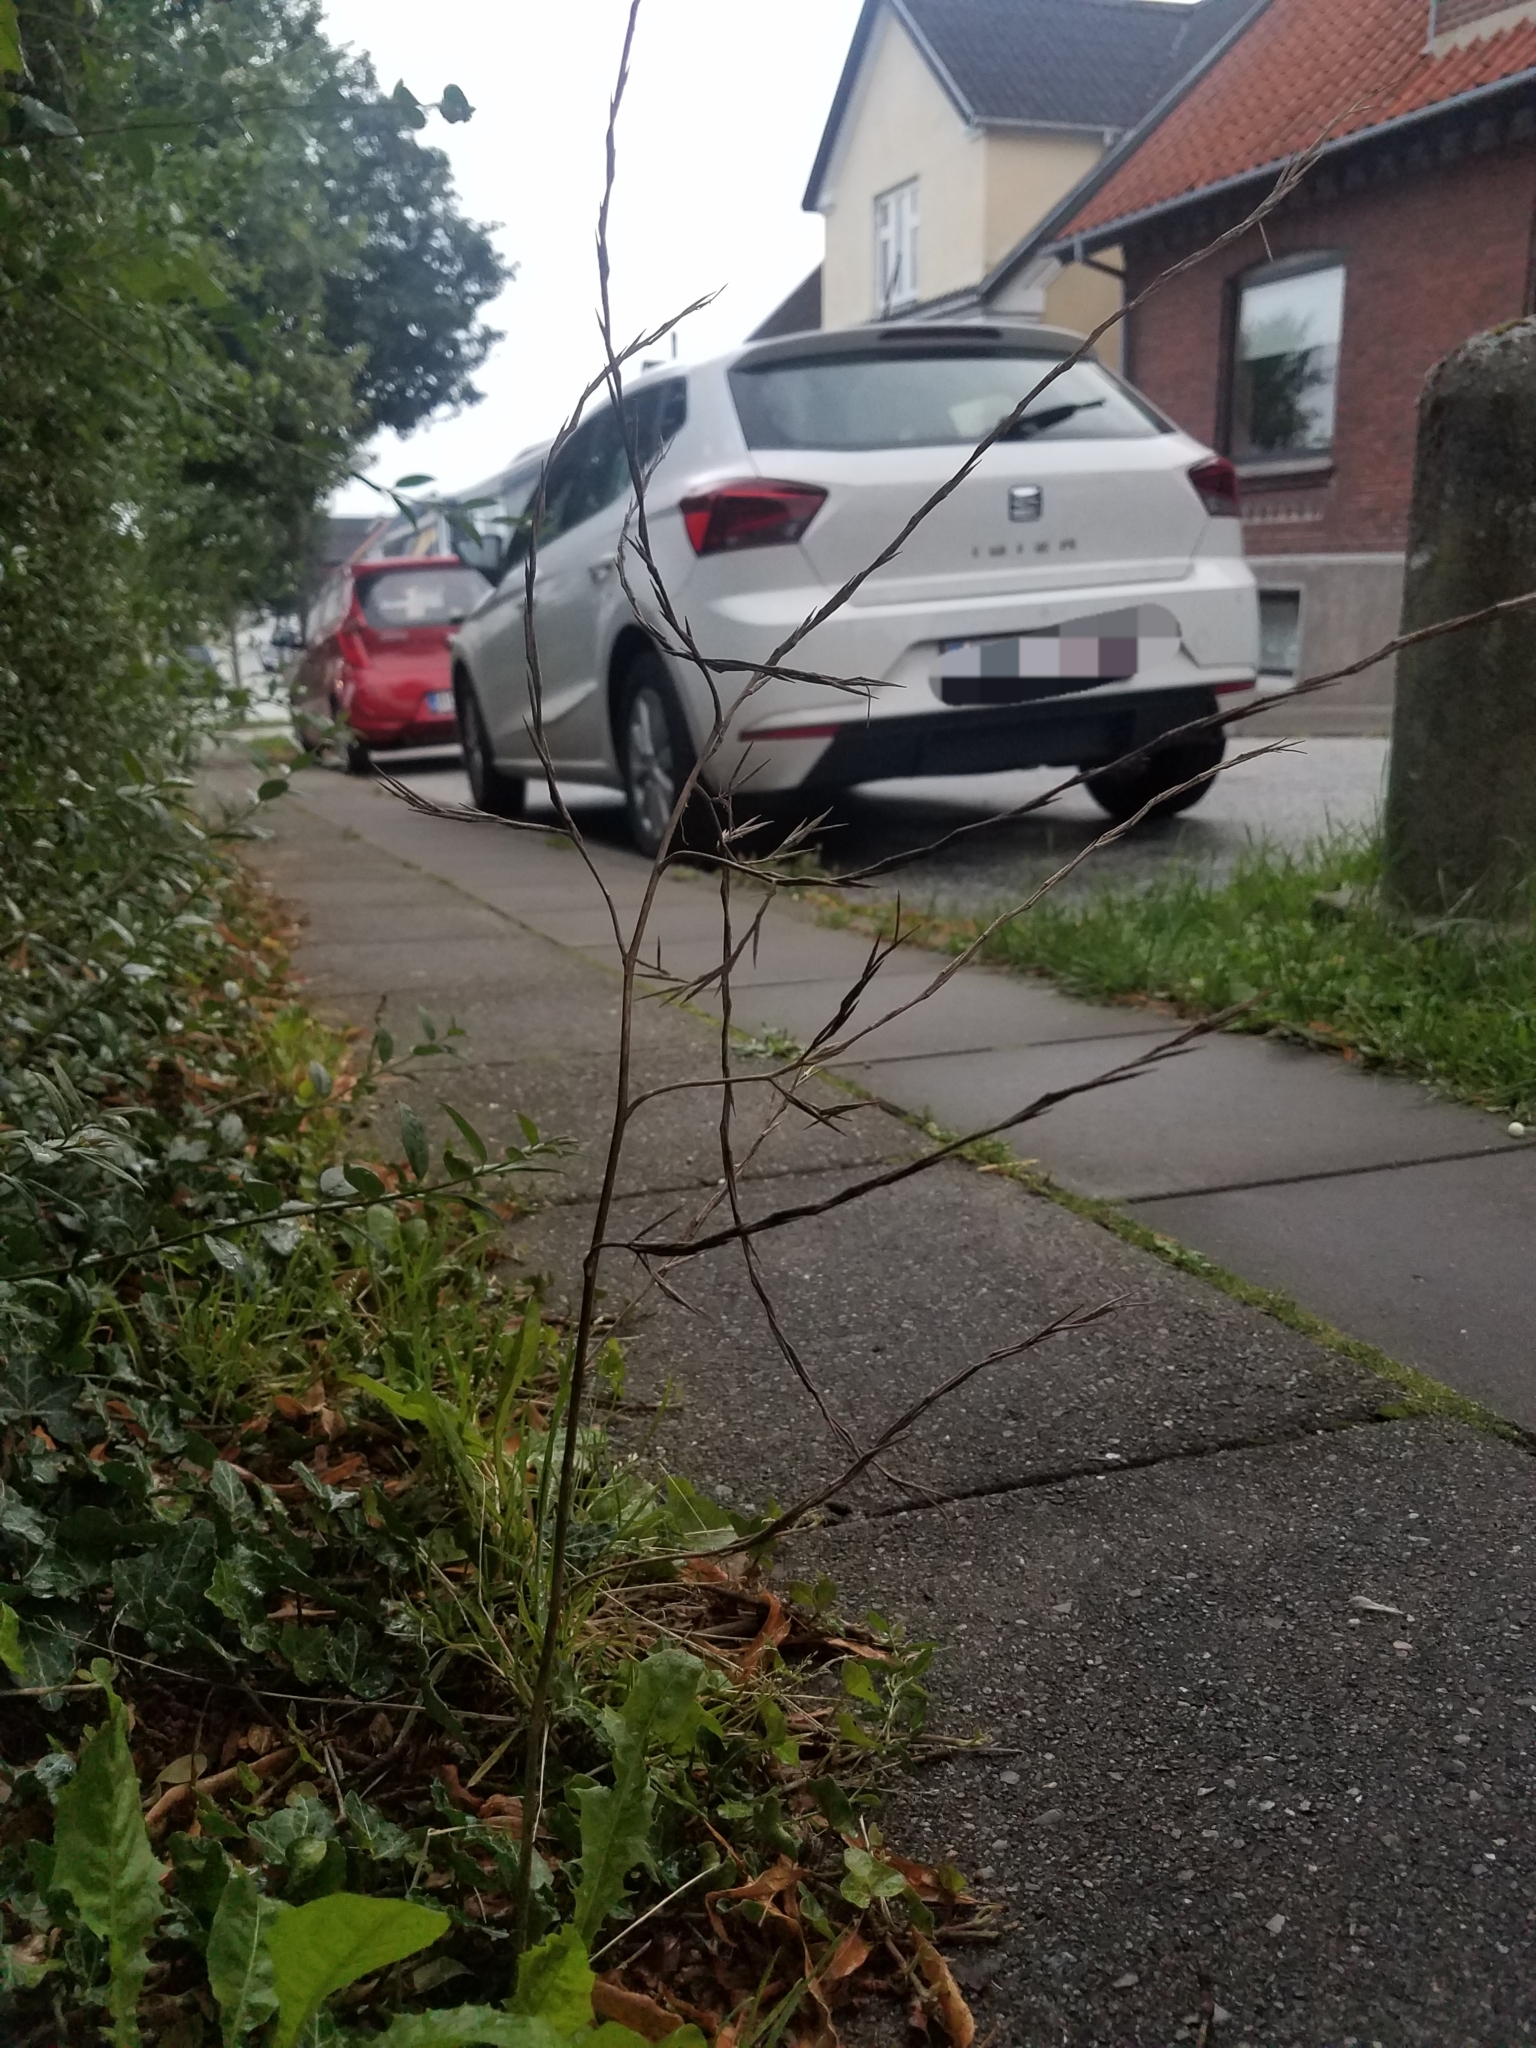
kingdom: Plantae
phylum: Tracheophyta
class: Magnoliopsida
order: Brassicales
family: Brassicaceae
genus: Sisymbrium
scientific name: Sisymbrium officinale
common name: Hedge mustard
